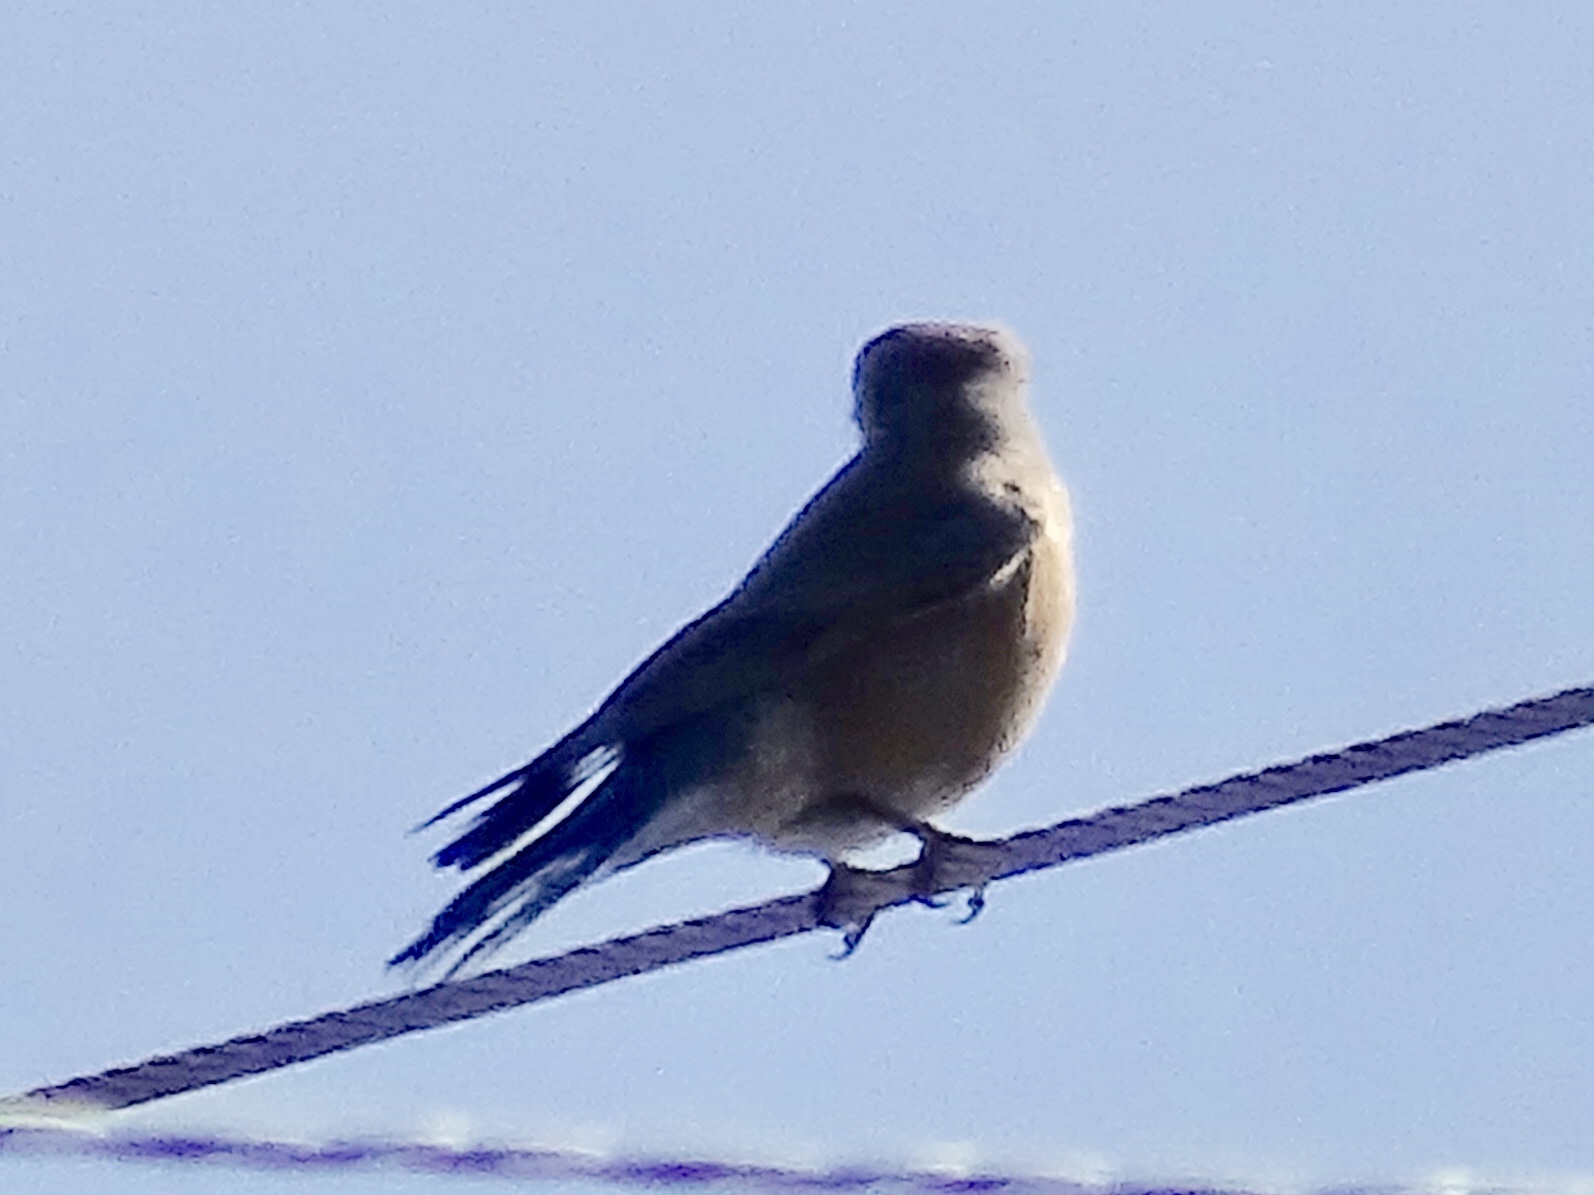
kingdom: Animalia
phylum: Chordata
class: Aves
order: Passeriformes
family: Turdidae
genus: Sialia
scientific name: Sialia mexicana
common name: Western bluebird
